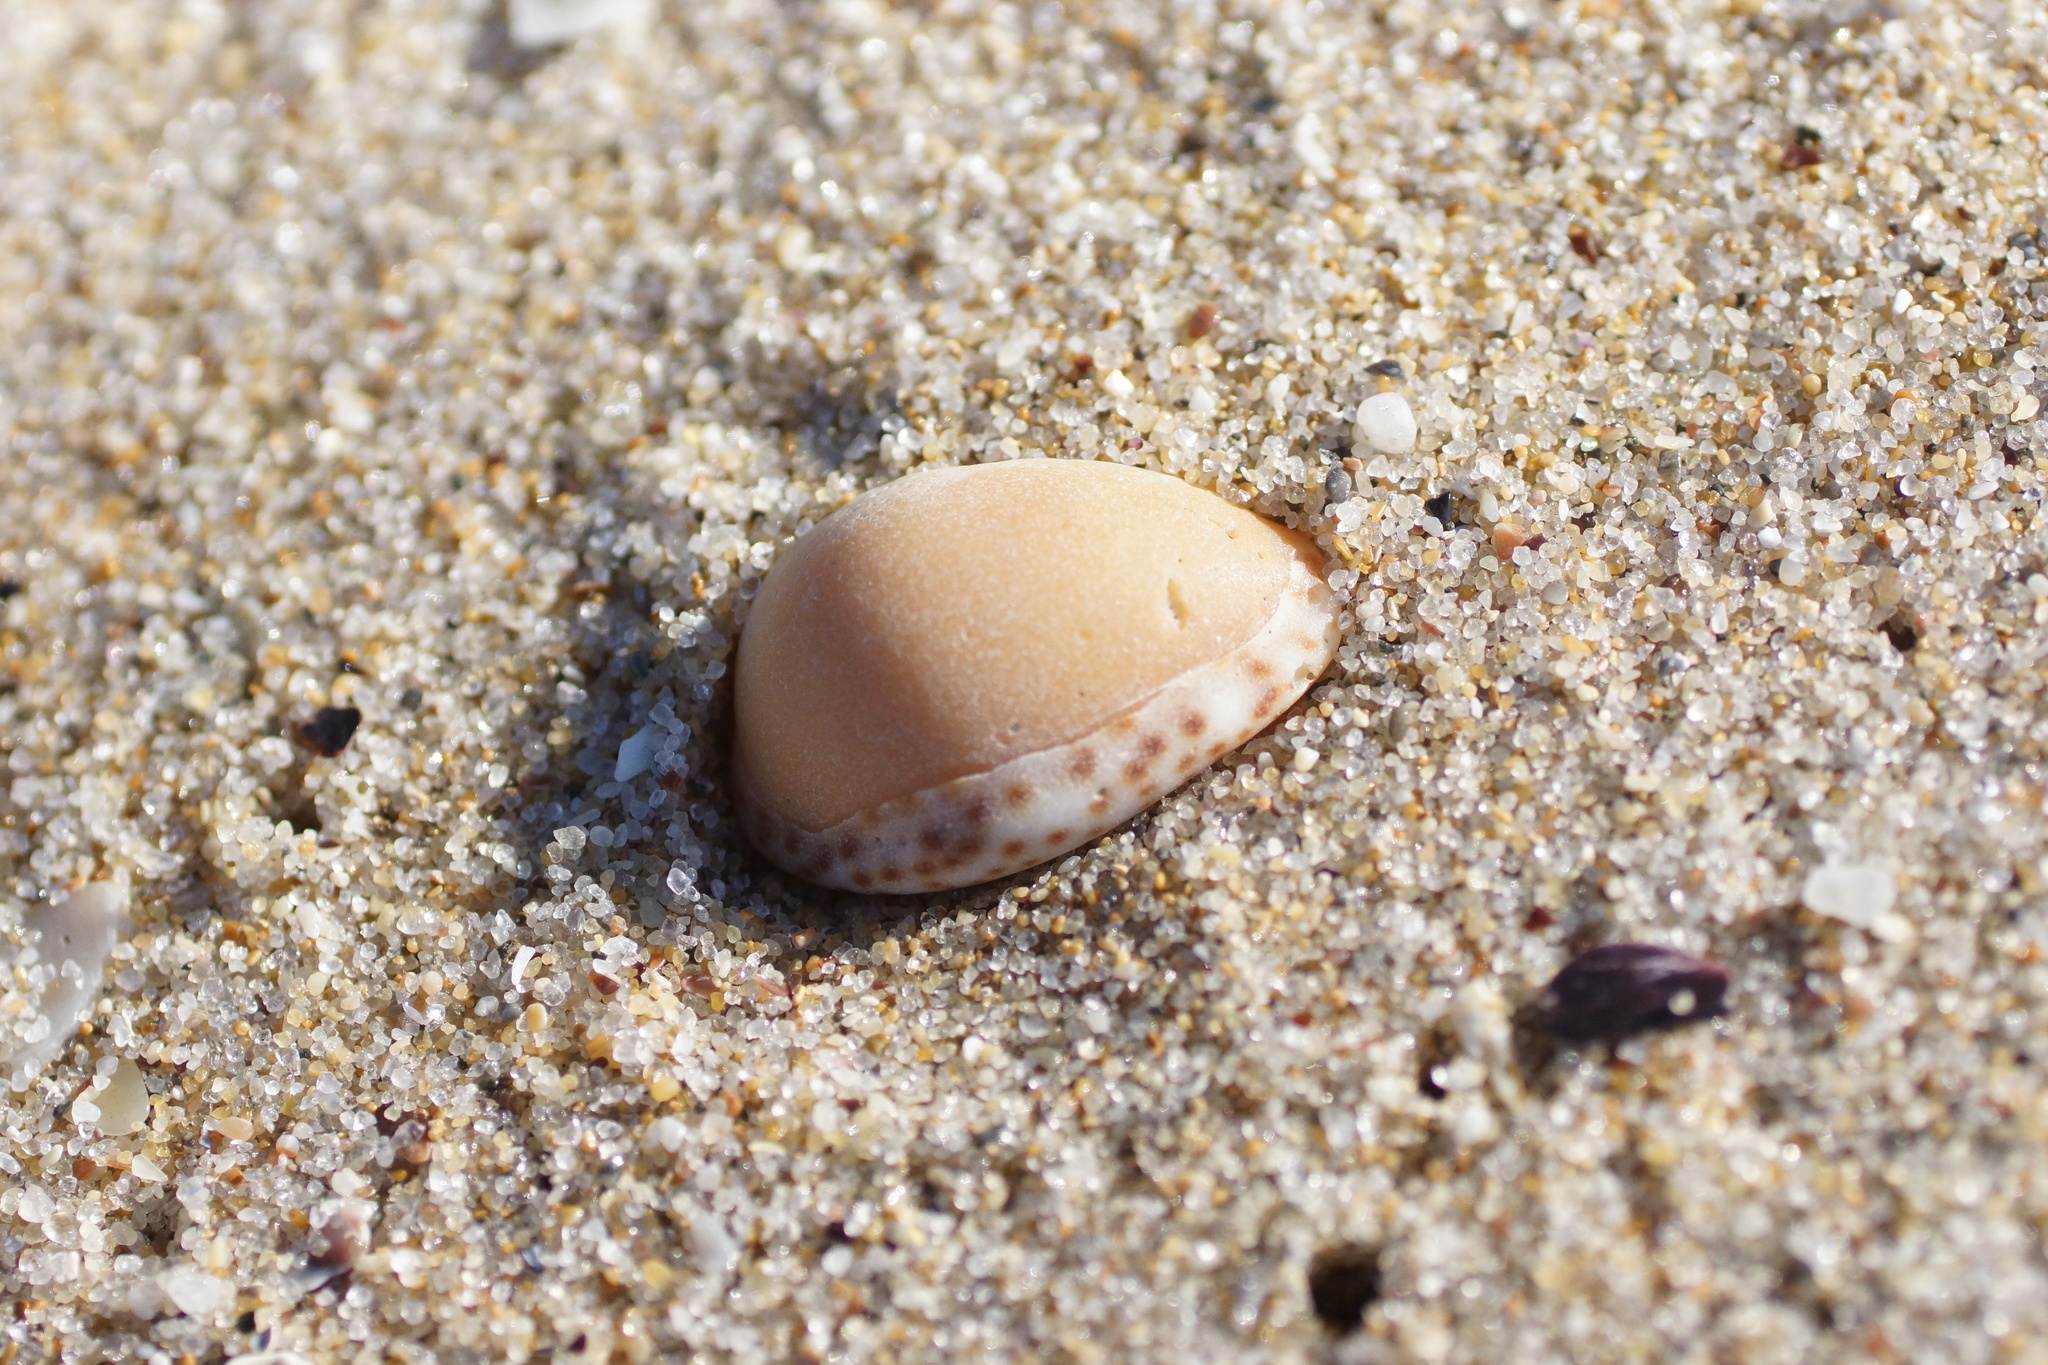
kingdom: Animalia
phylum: Mollusca
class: Gastropoda
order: Littorinimorpha
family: Cypraeidae
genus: Notocypraea
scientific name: Notocypraea angustata
